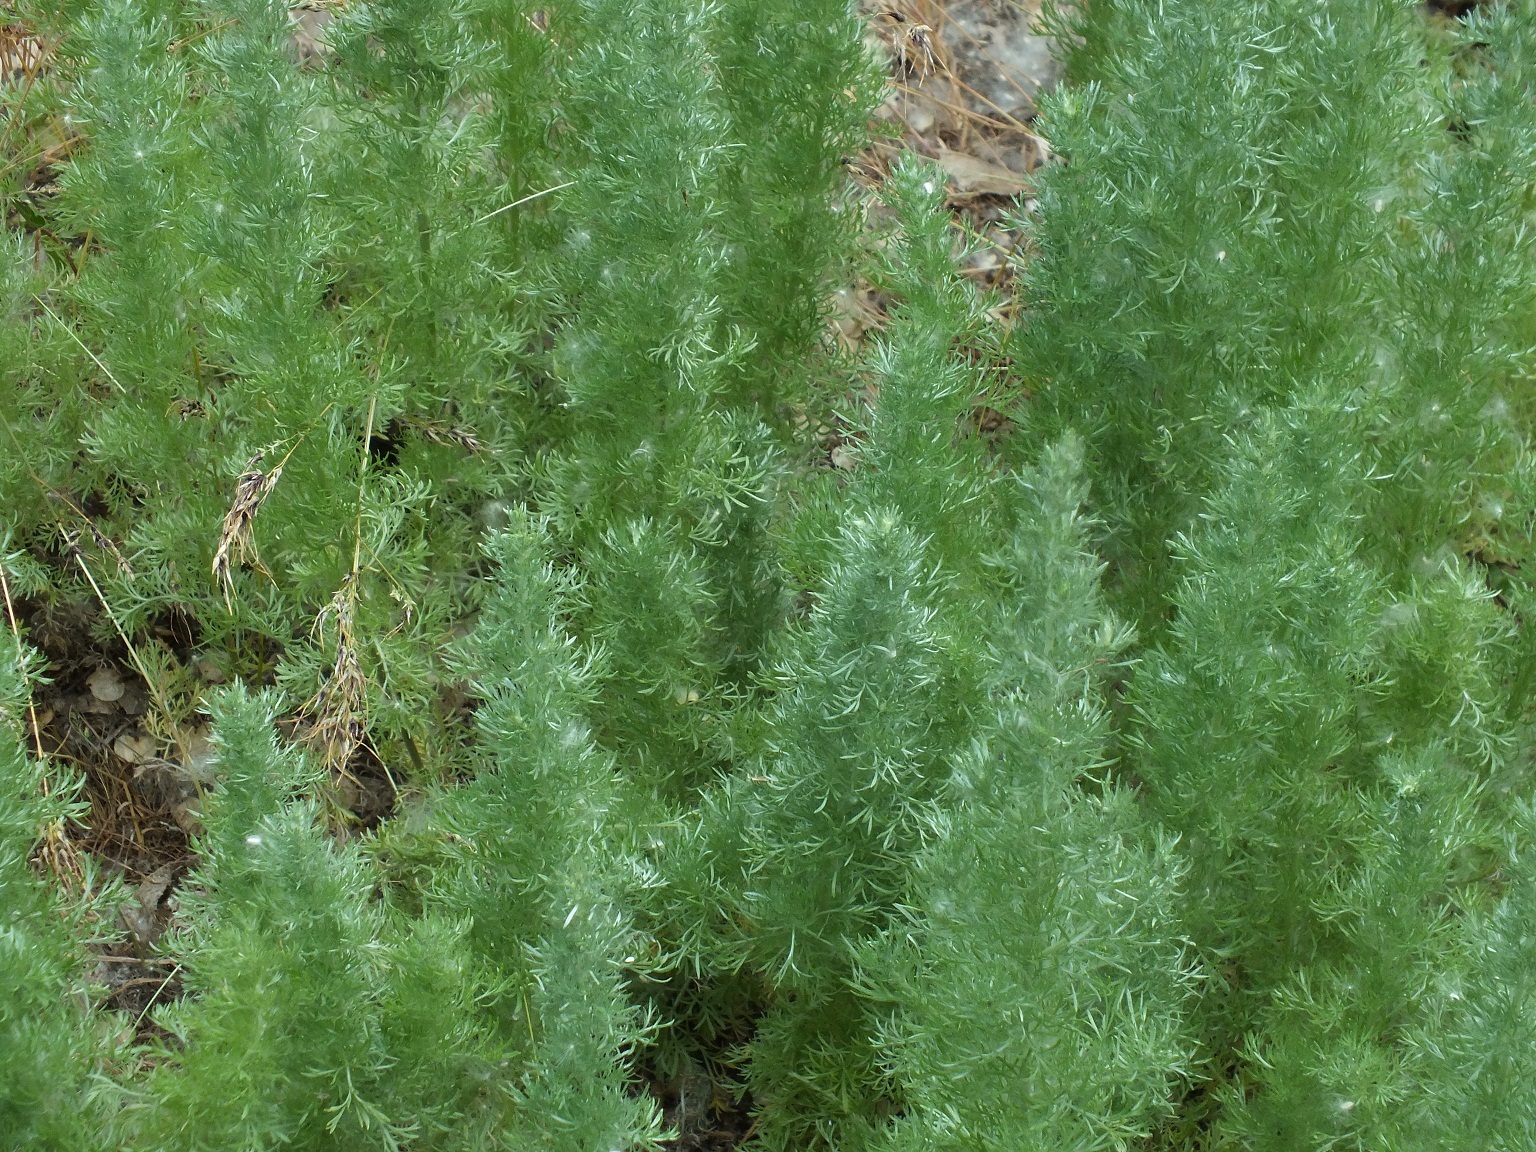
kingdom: Plantae
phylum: Tracheophyta
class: Magnoliopsida
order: Asterales
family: Asteraceae
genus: Artemisia
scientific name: Artemisia austriaca
